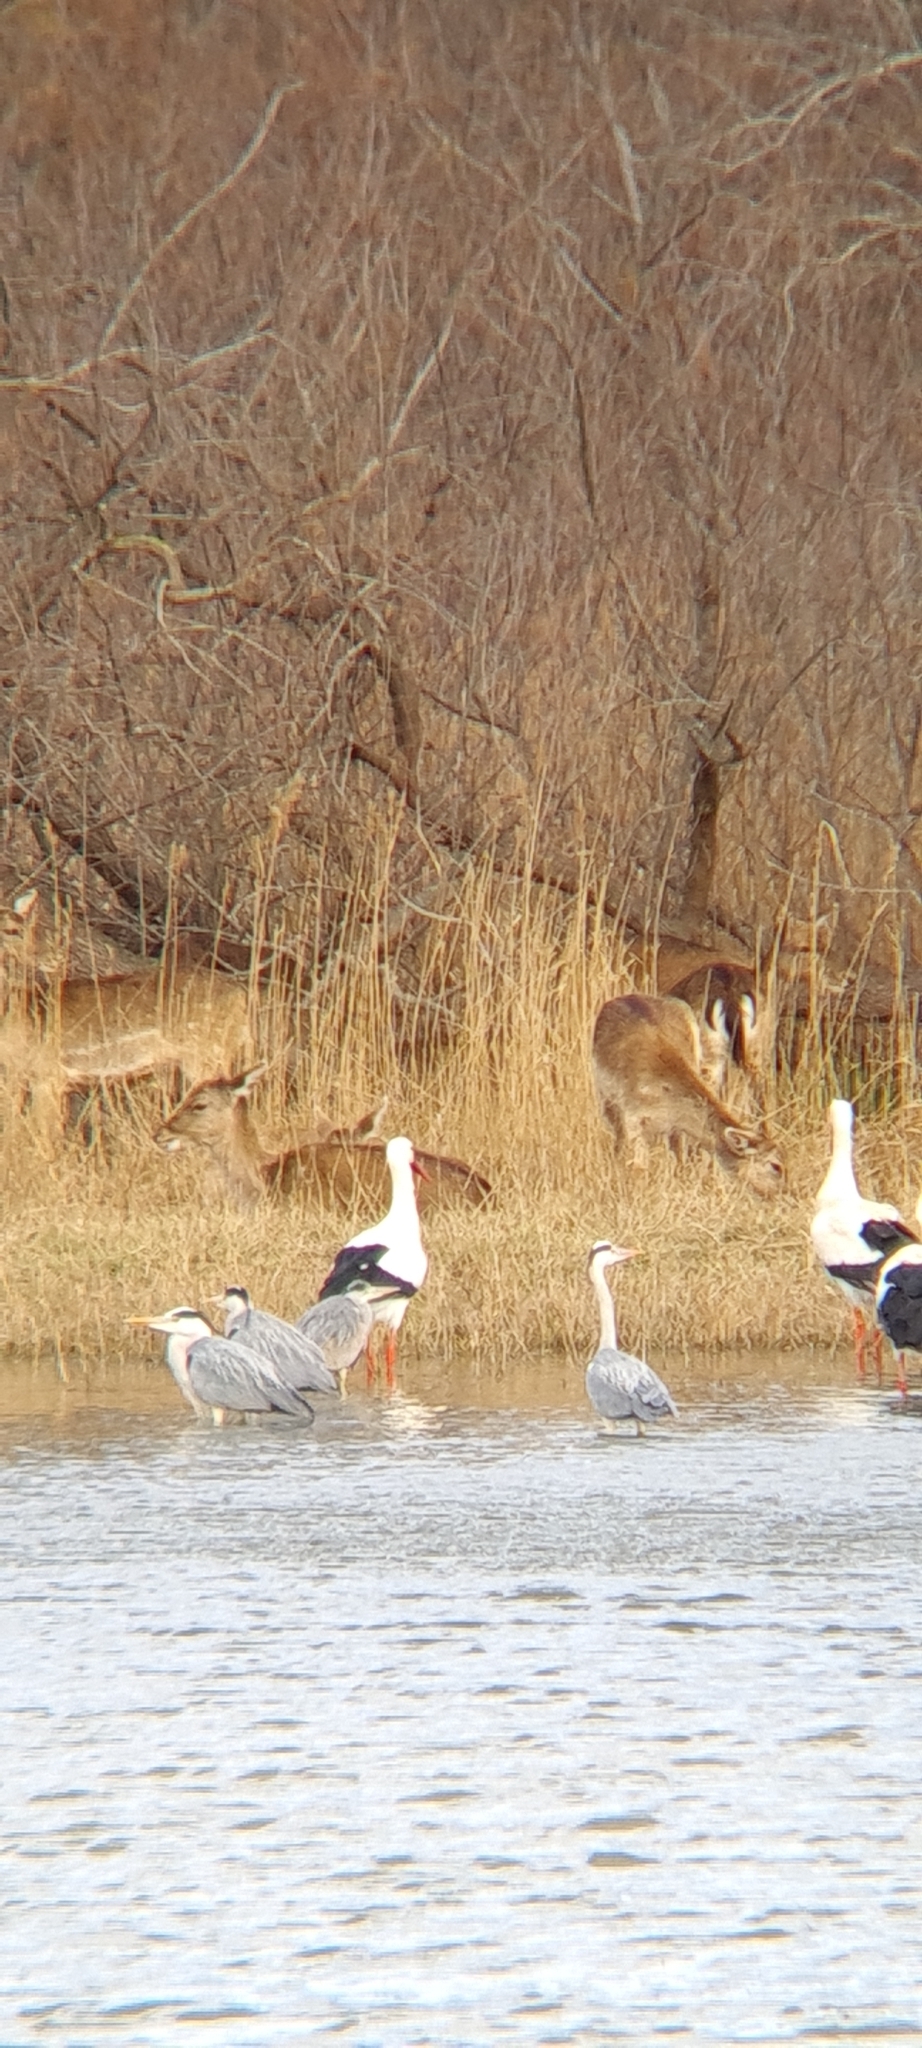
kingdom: Animalia
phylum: Chordata
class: Mammalia
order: Artiodactyla
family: Cervidae
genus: Dama
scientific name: Dama dama
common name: Fallow deer
